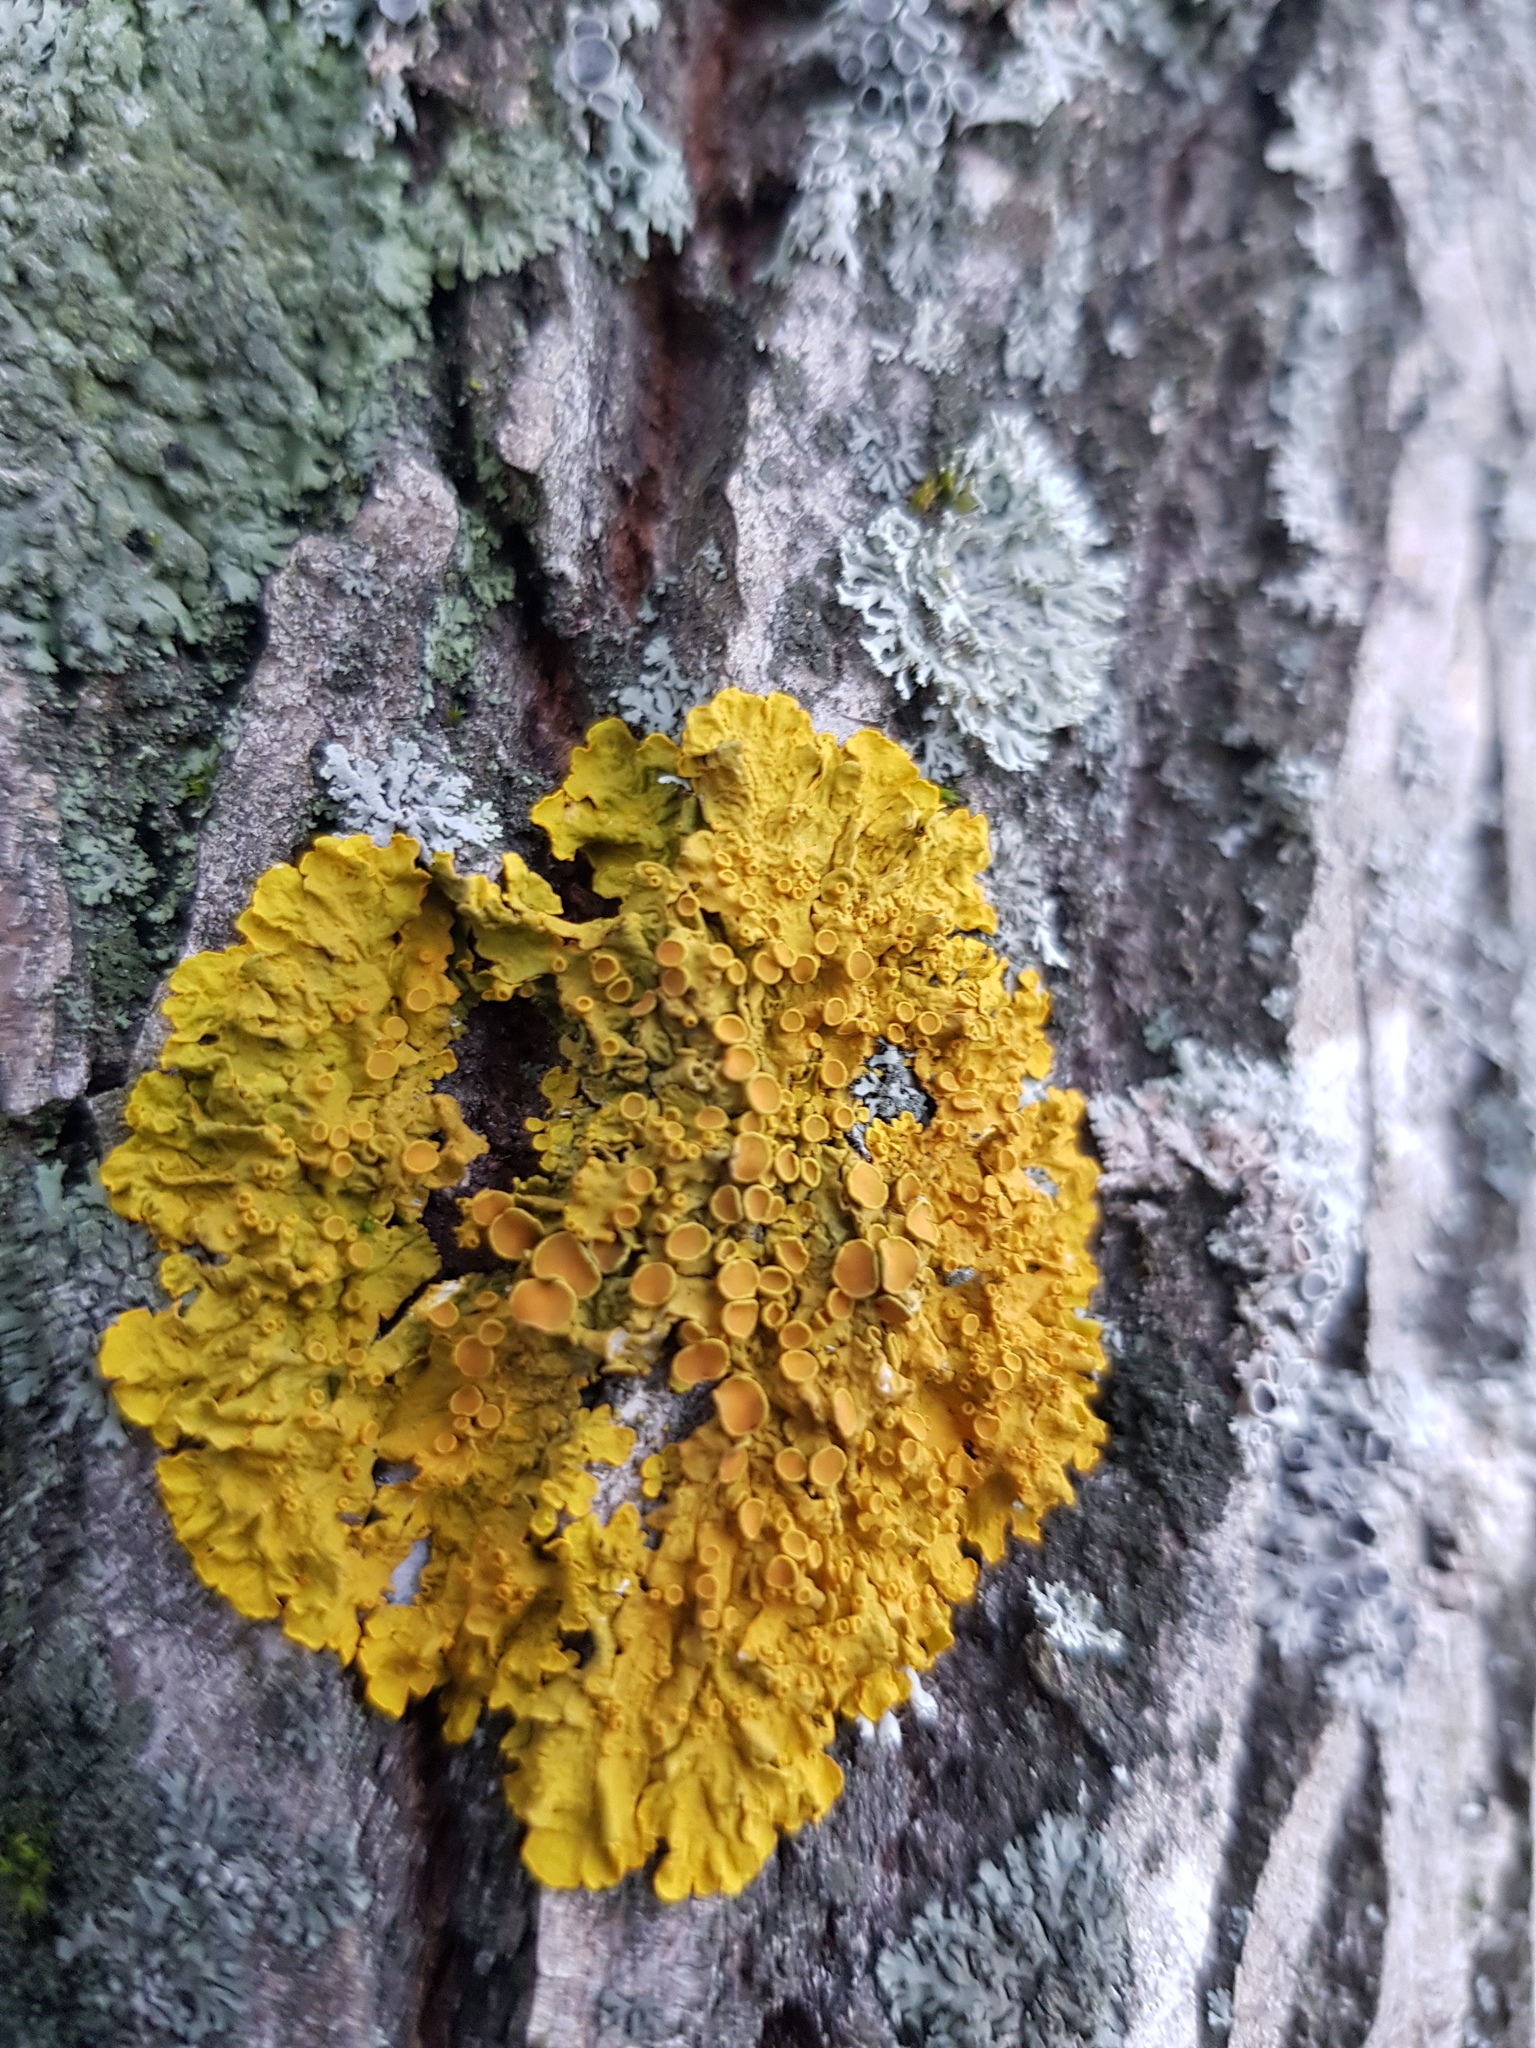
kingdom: Fungi
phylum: Ascomycota
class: Lecanoromycetes
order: Teloschistales
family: Teloschistaceae
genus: Xanthoria
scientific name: Xanthoria parietina
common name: Common orange lichen
